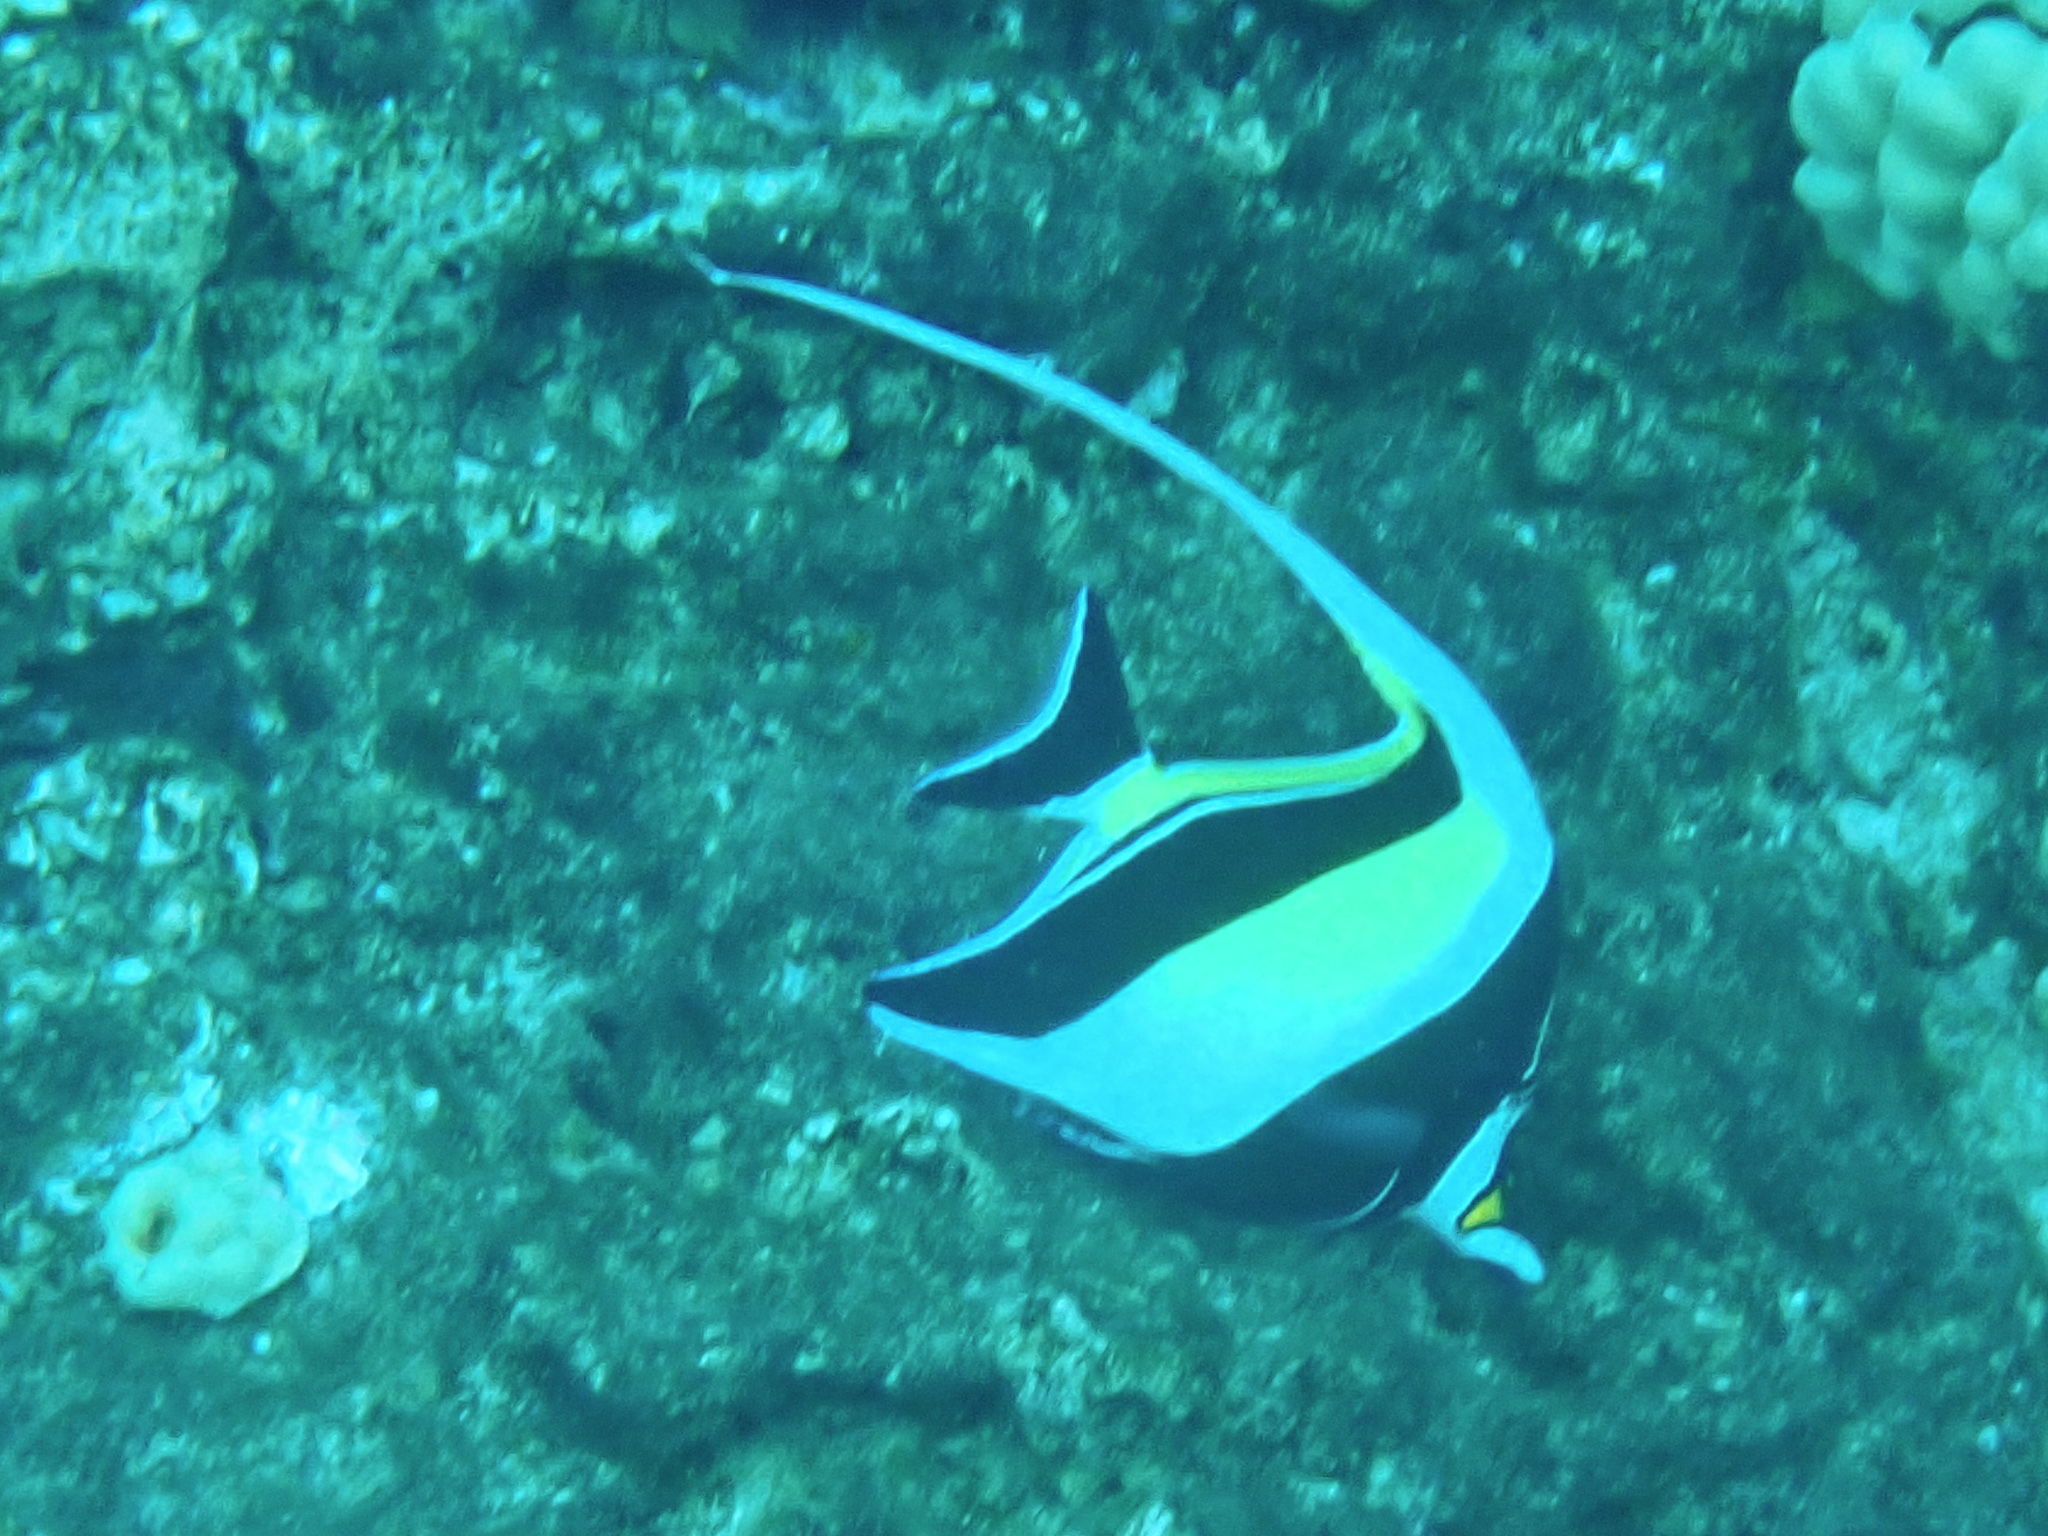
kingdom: Animalia
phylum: Chordata
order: Perciformes
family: Zanclidae
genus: Zanclus
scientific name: Zanclus cornutus
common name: Moorish idol
